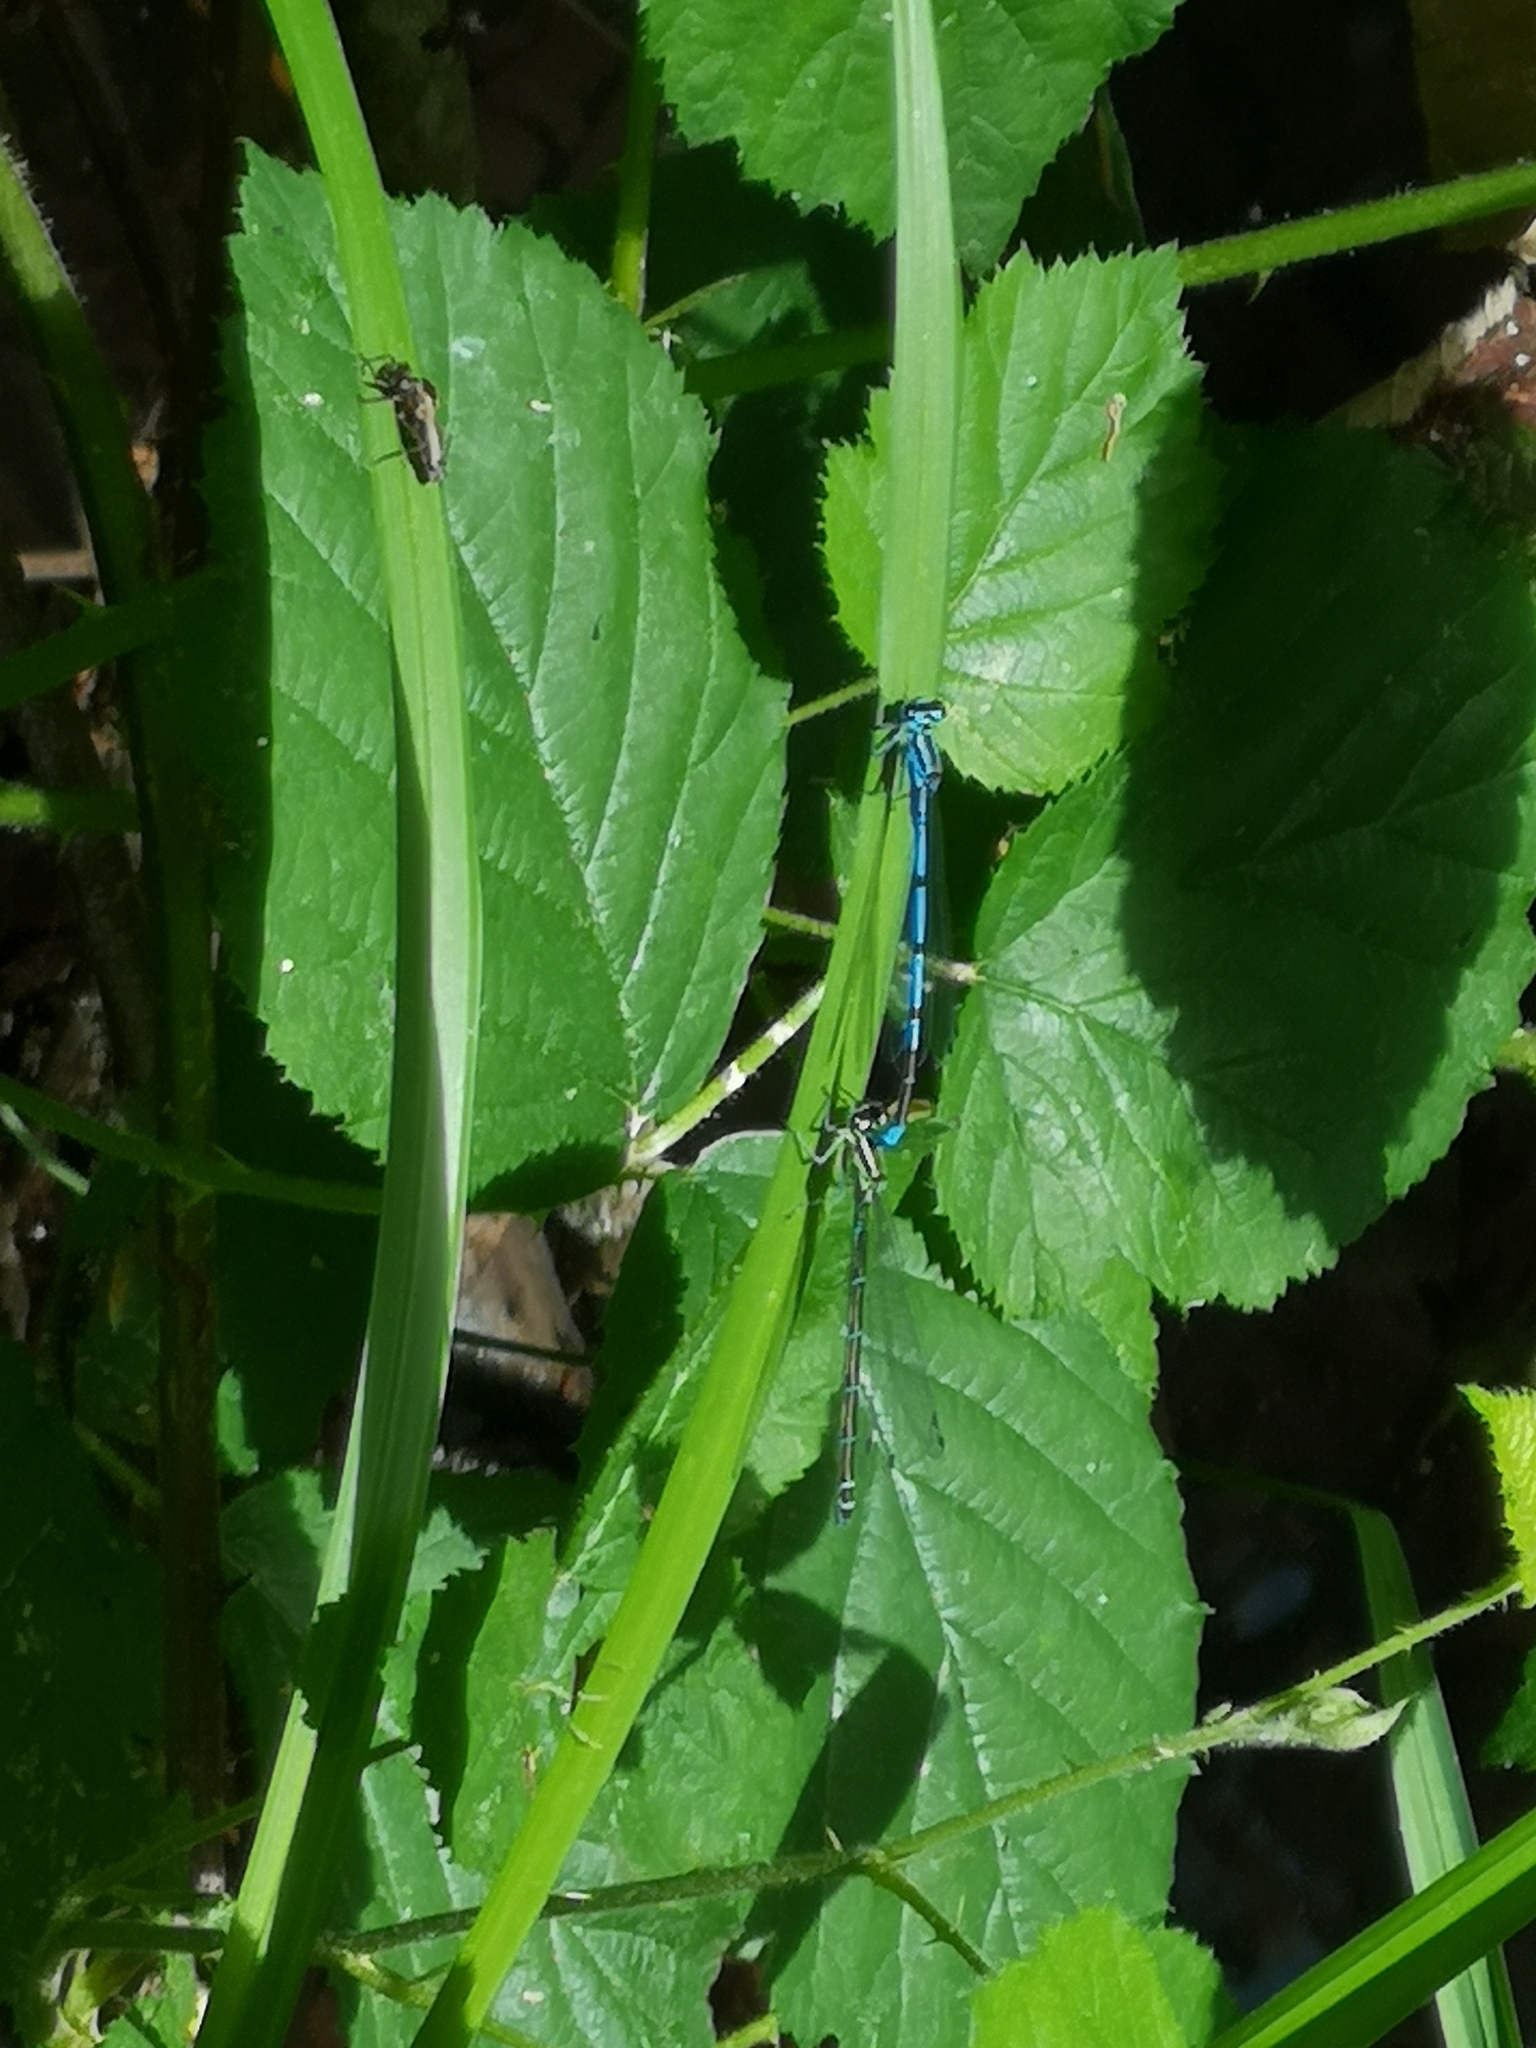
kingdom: Animalia
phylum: Arthropoda
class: Insecta
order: Odonata
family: Coenagrionidae
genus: Coenagrion
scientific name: Coenagrion puella
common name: Azure damselfly
